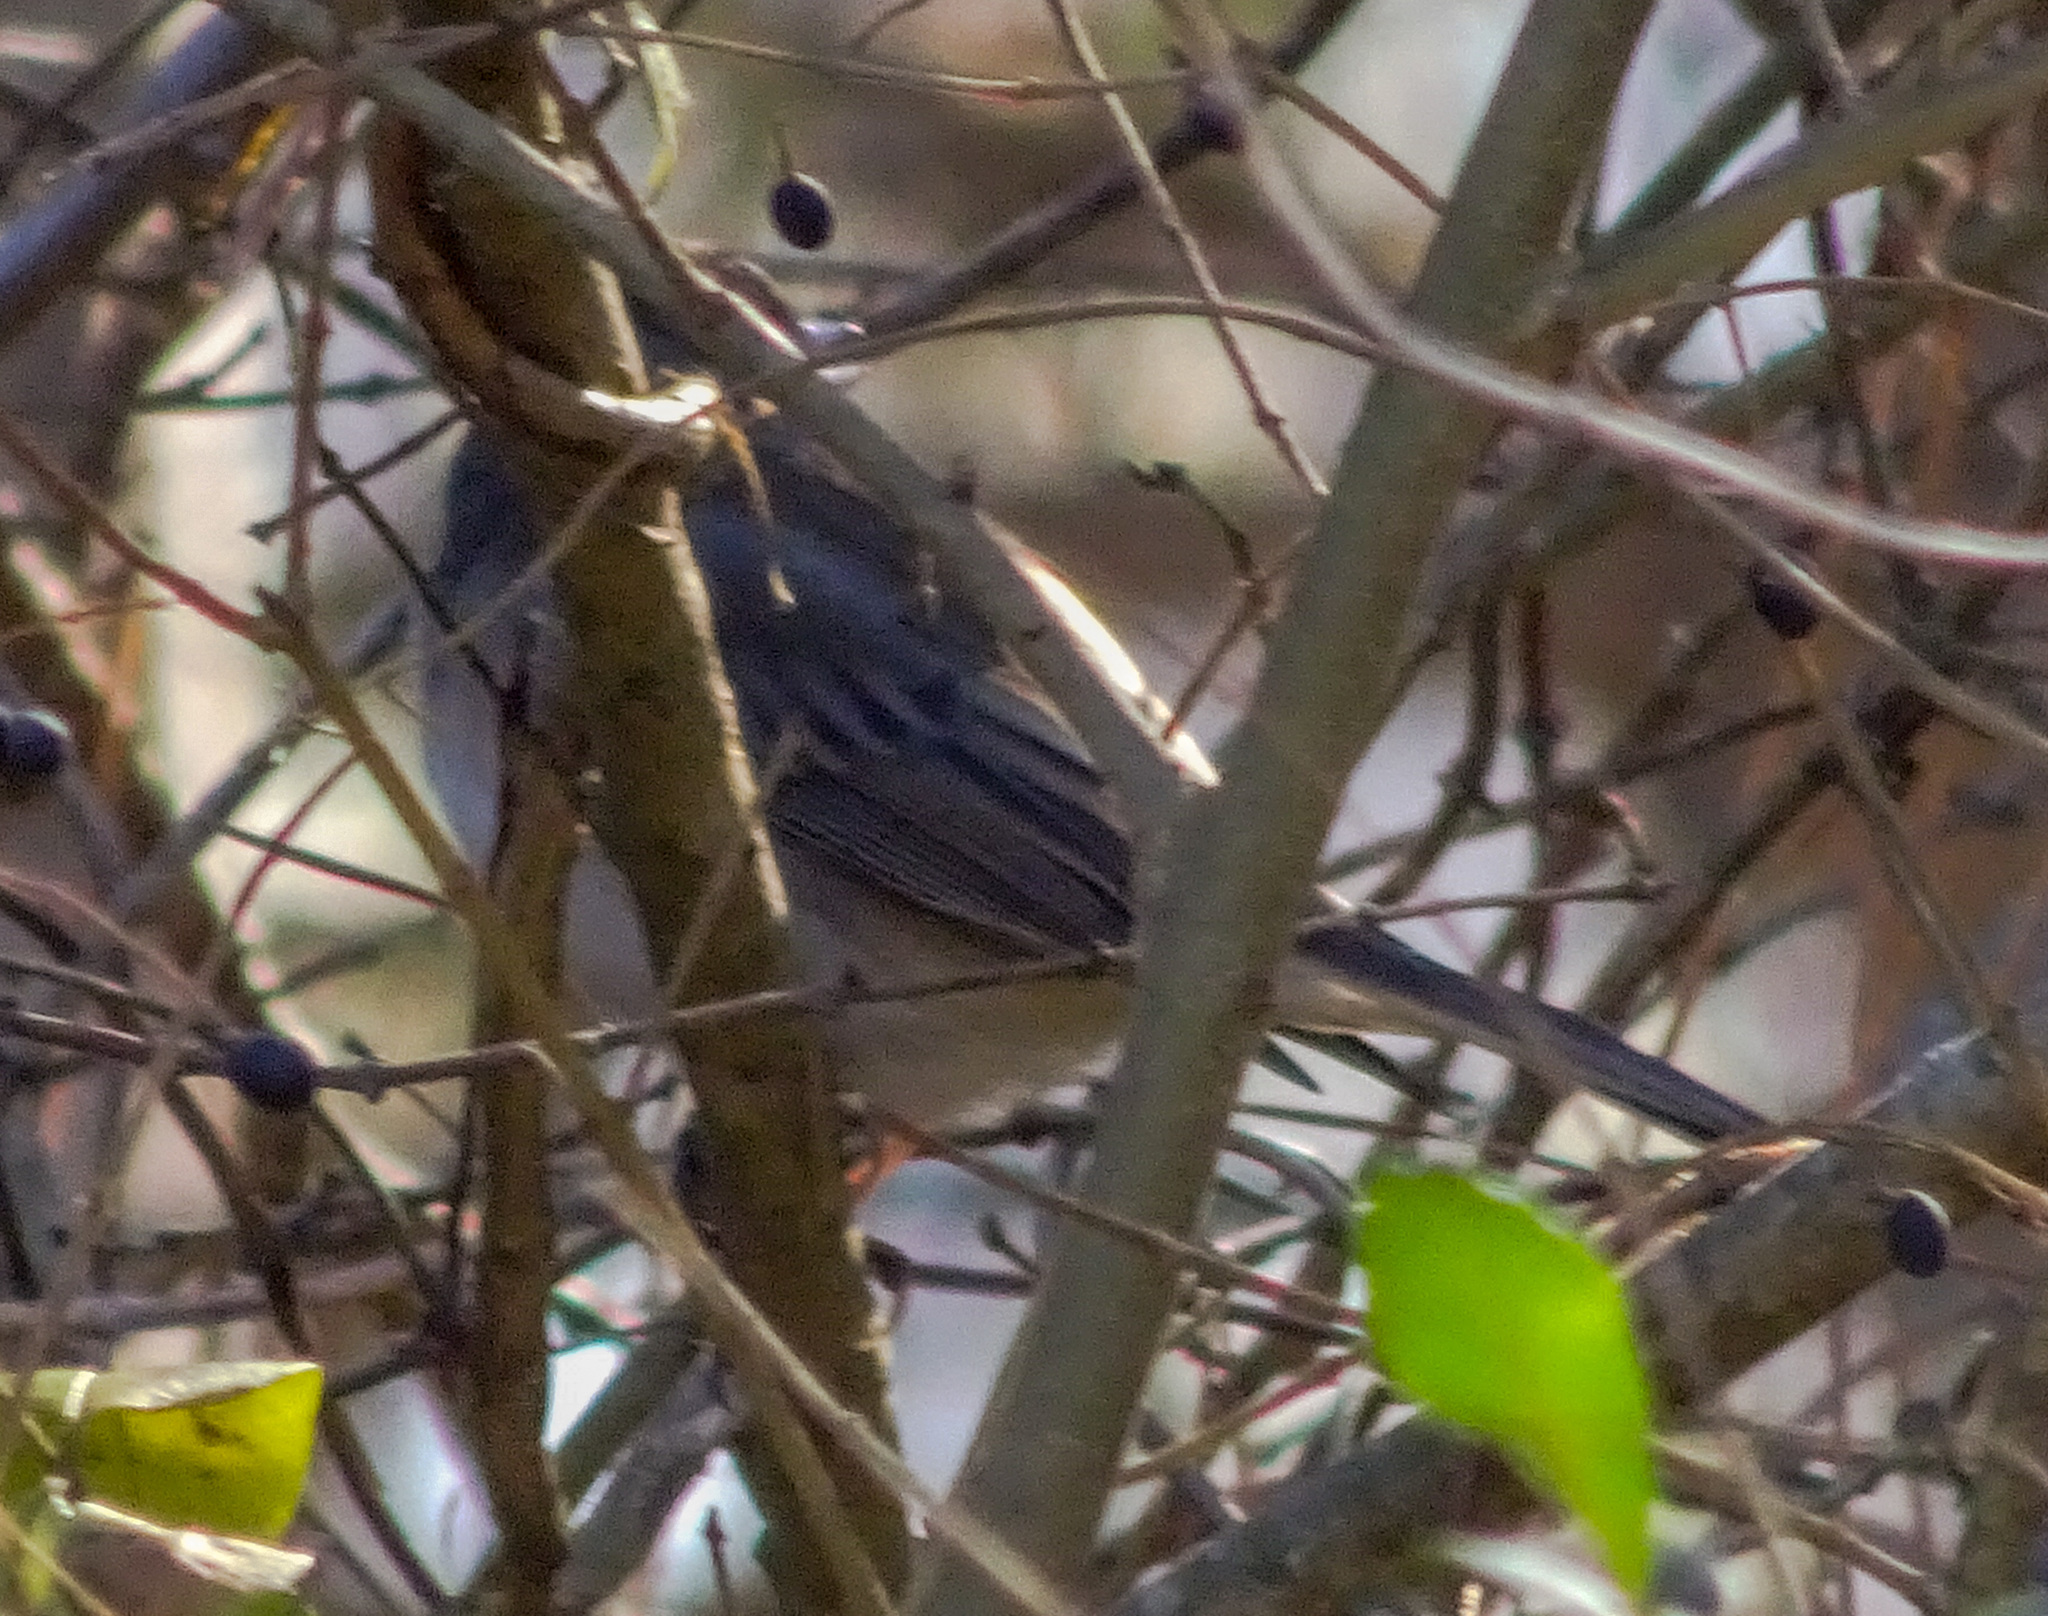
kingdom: Animalia
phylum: Chordata
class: Aves
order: Passeriformes
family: Passerellidae
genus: Junco
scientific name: Junco hyemalis
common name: Dark-eyed junco
